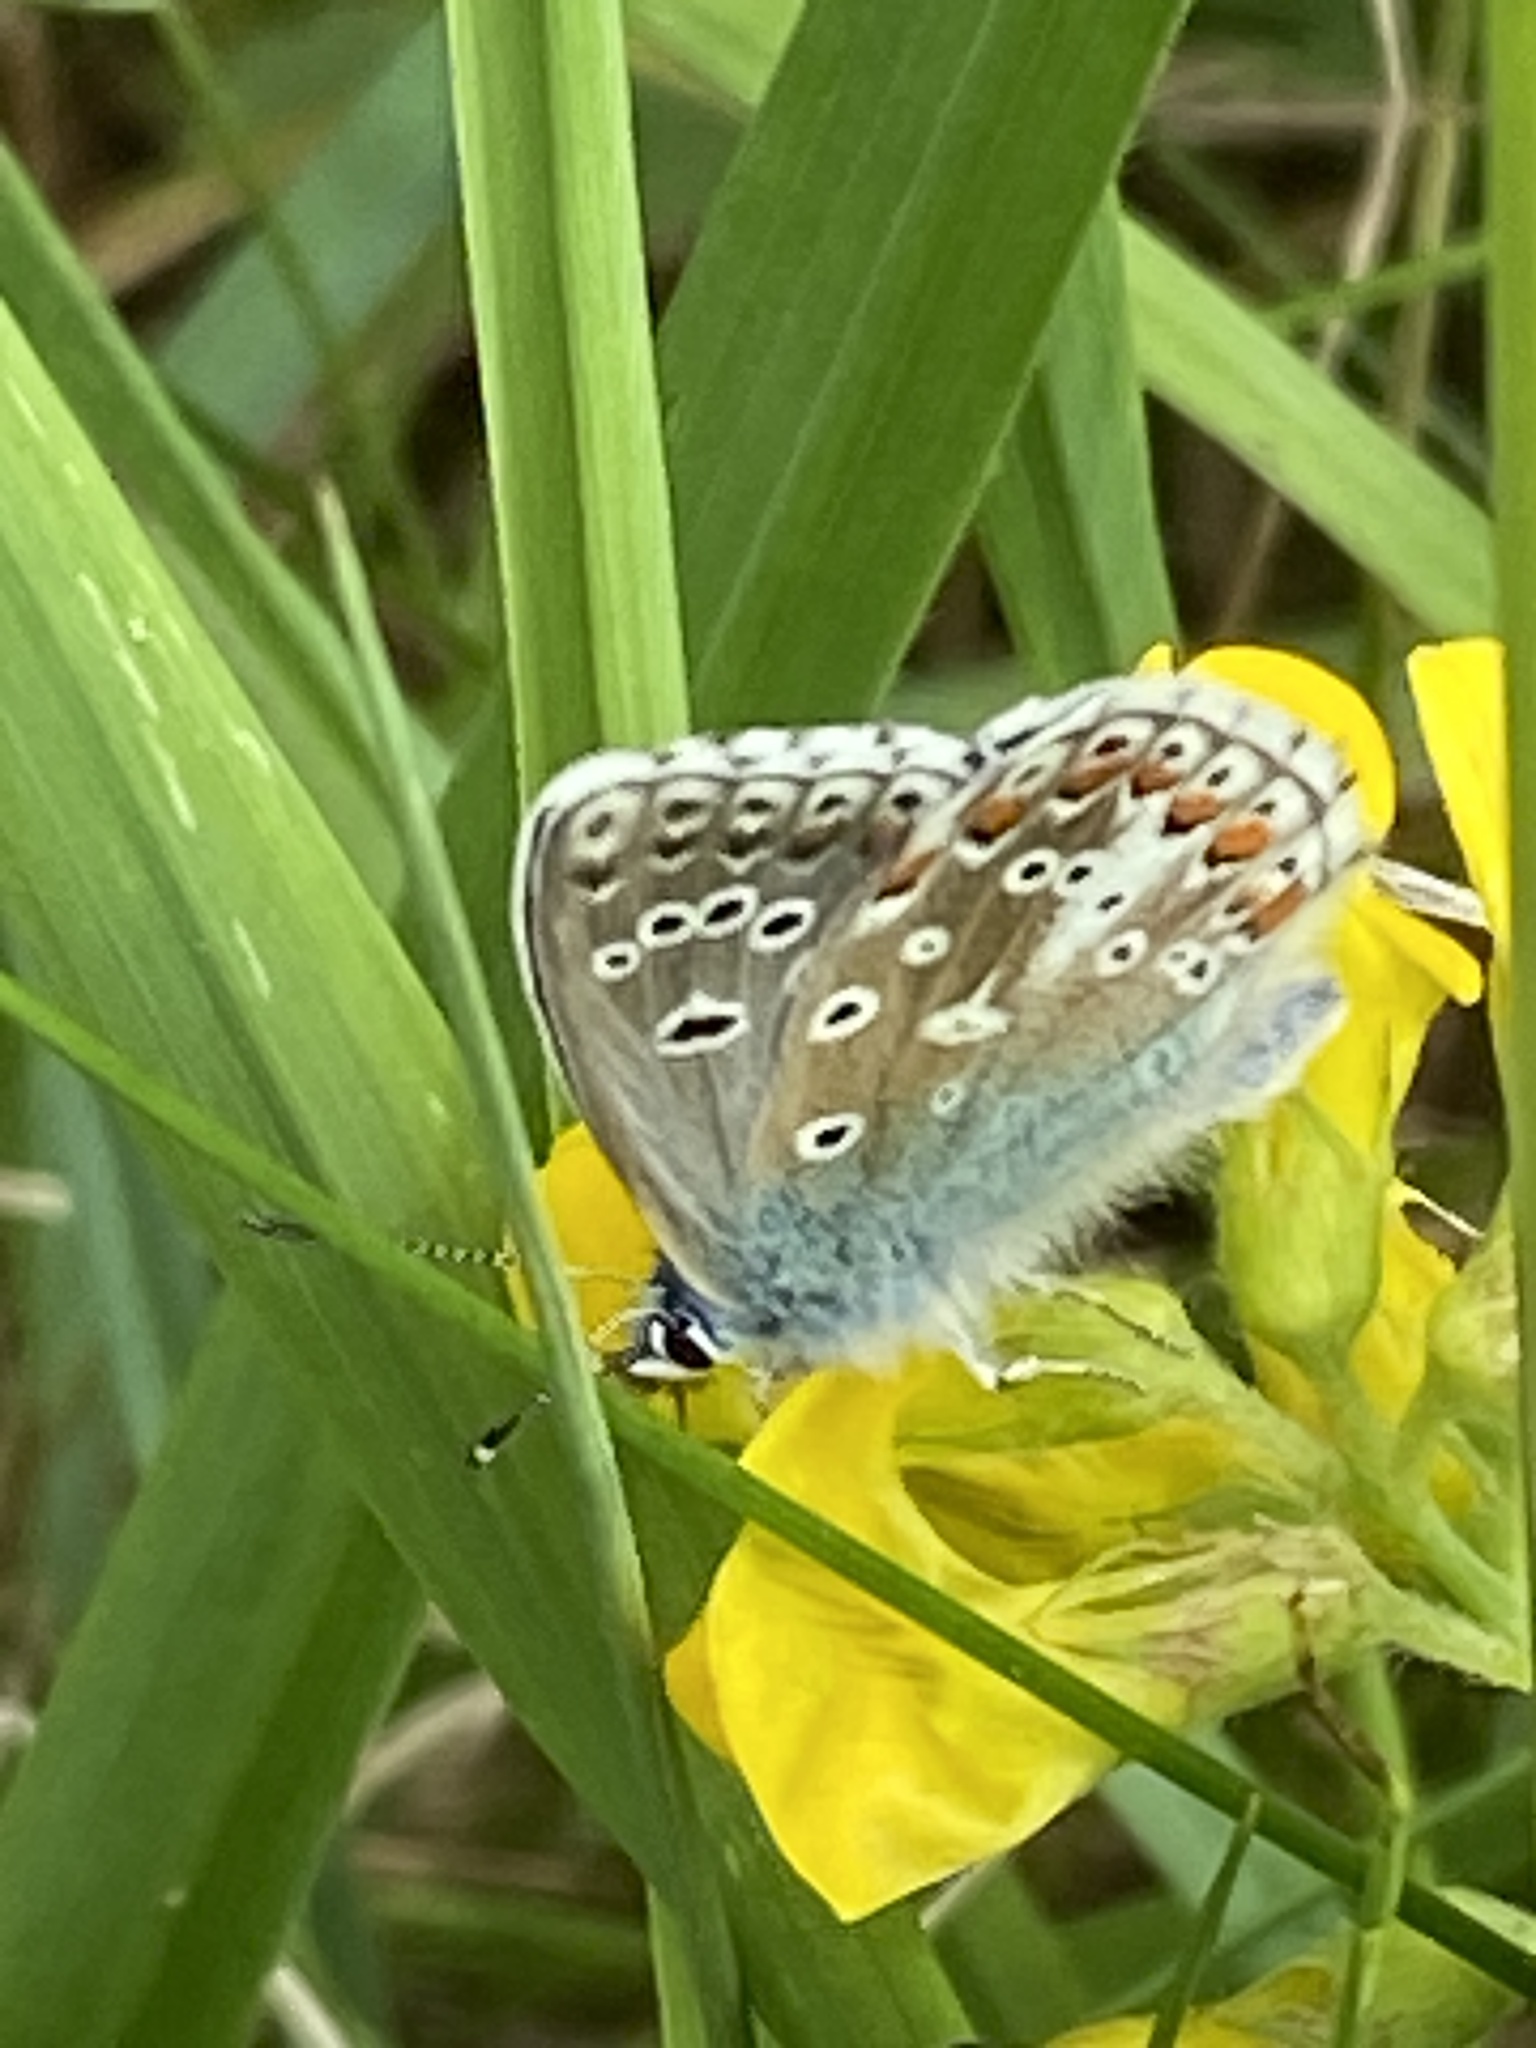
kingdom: Animalia
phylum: Arthropoda
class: Insecta
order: Lepidoptera
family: Lycaenidae
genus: Lysandra
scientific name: Lysandra bellargus
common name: Adonis blue
